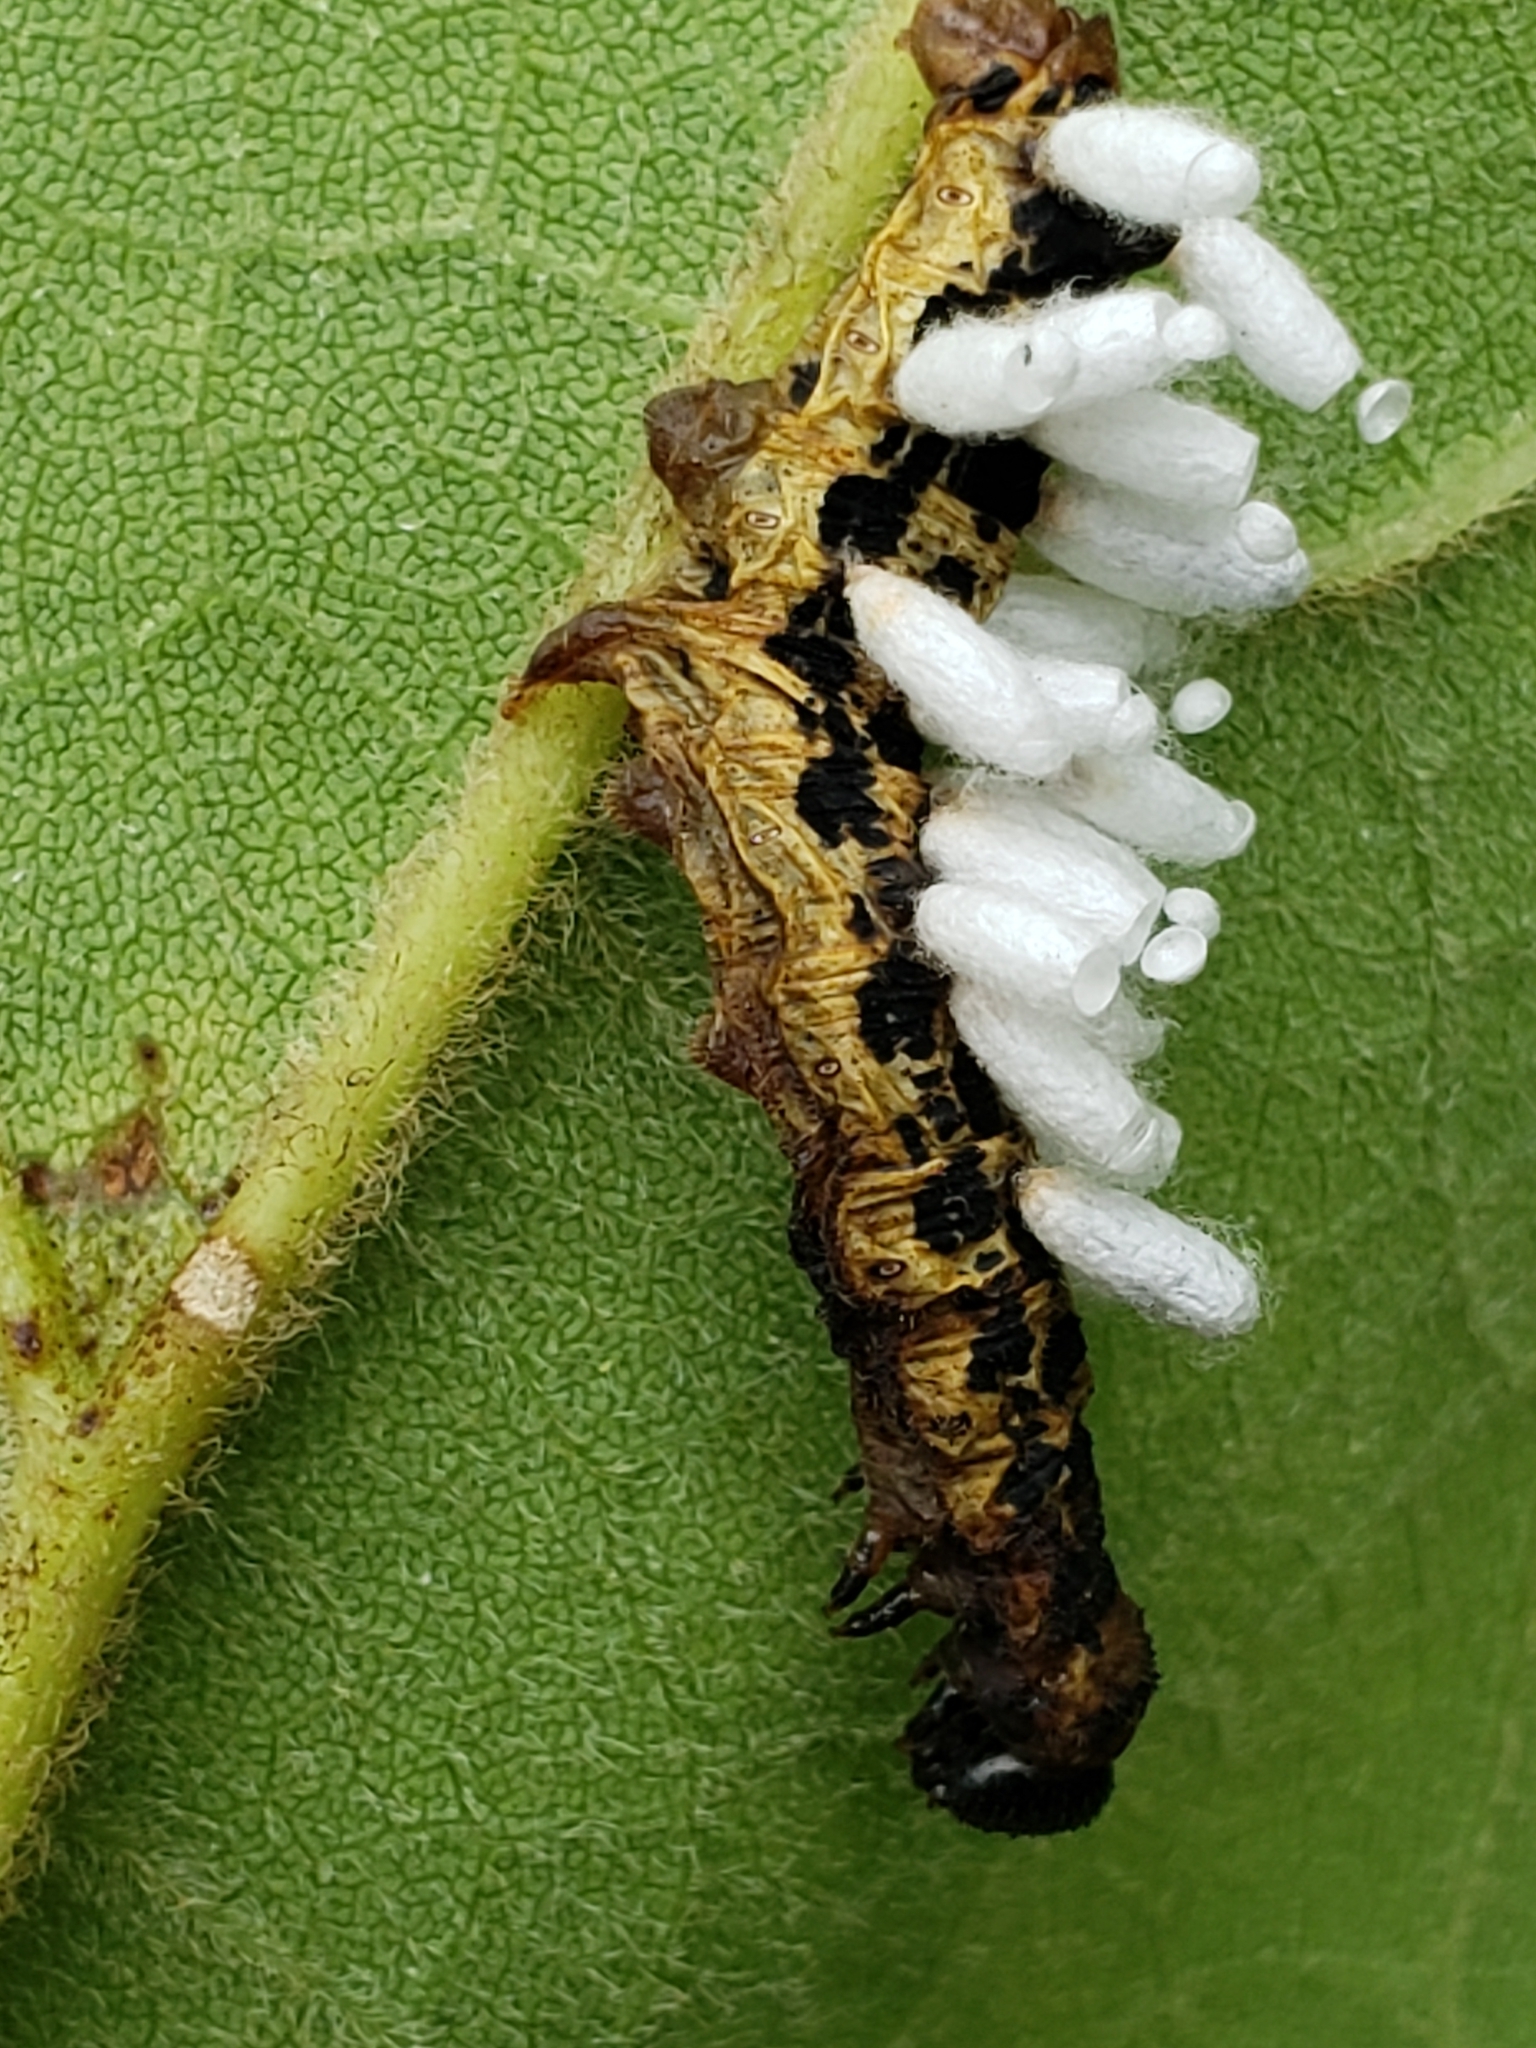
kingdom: Animalia
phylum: Arthropoda
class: Insecta
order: Lepidoptera
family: Sphingidae
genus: Ceratomia
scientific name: Ceratomia catalpae
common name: Catalpa hornworm
